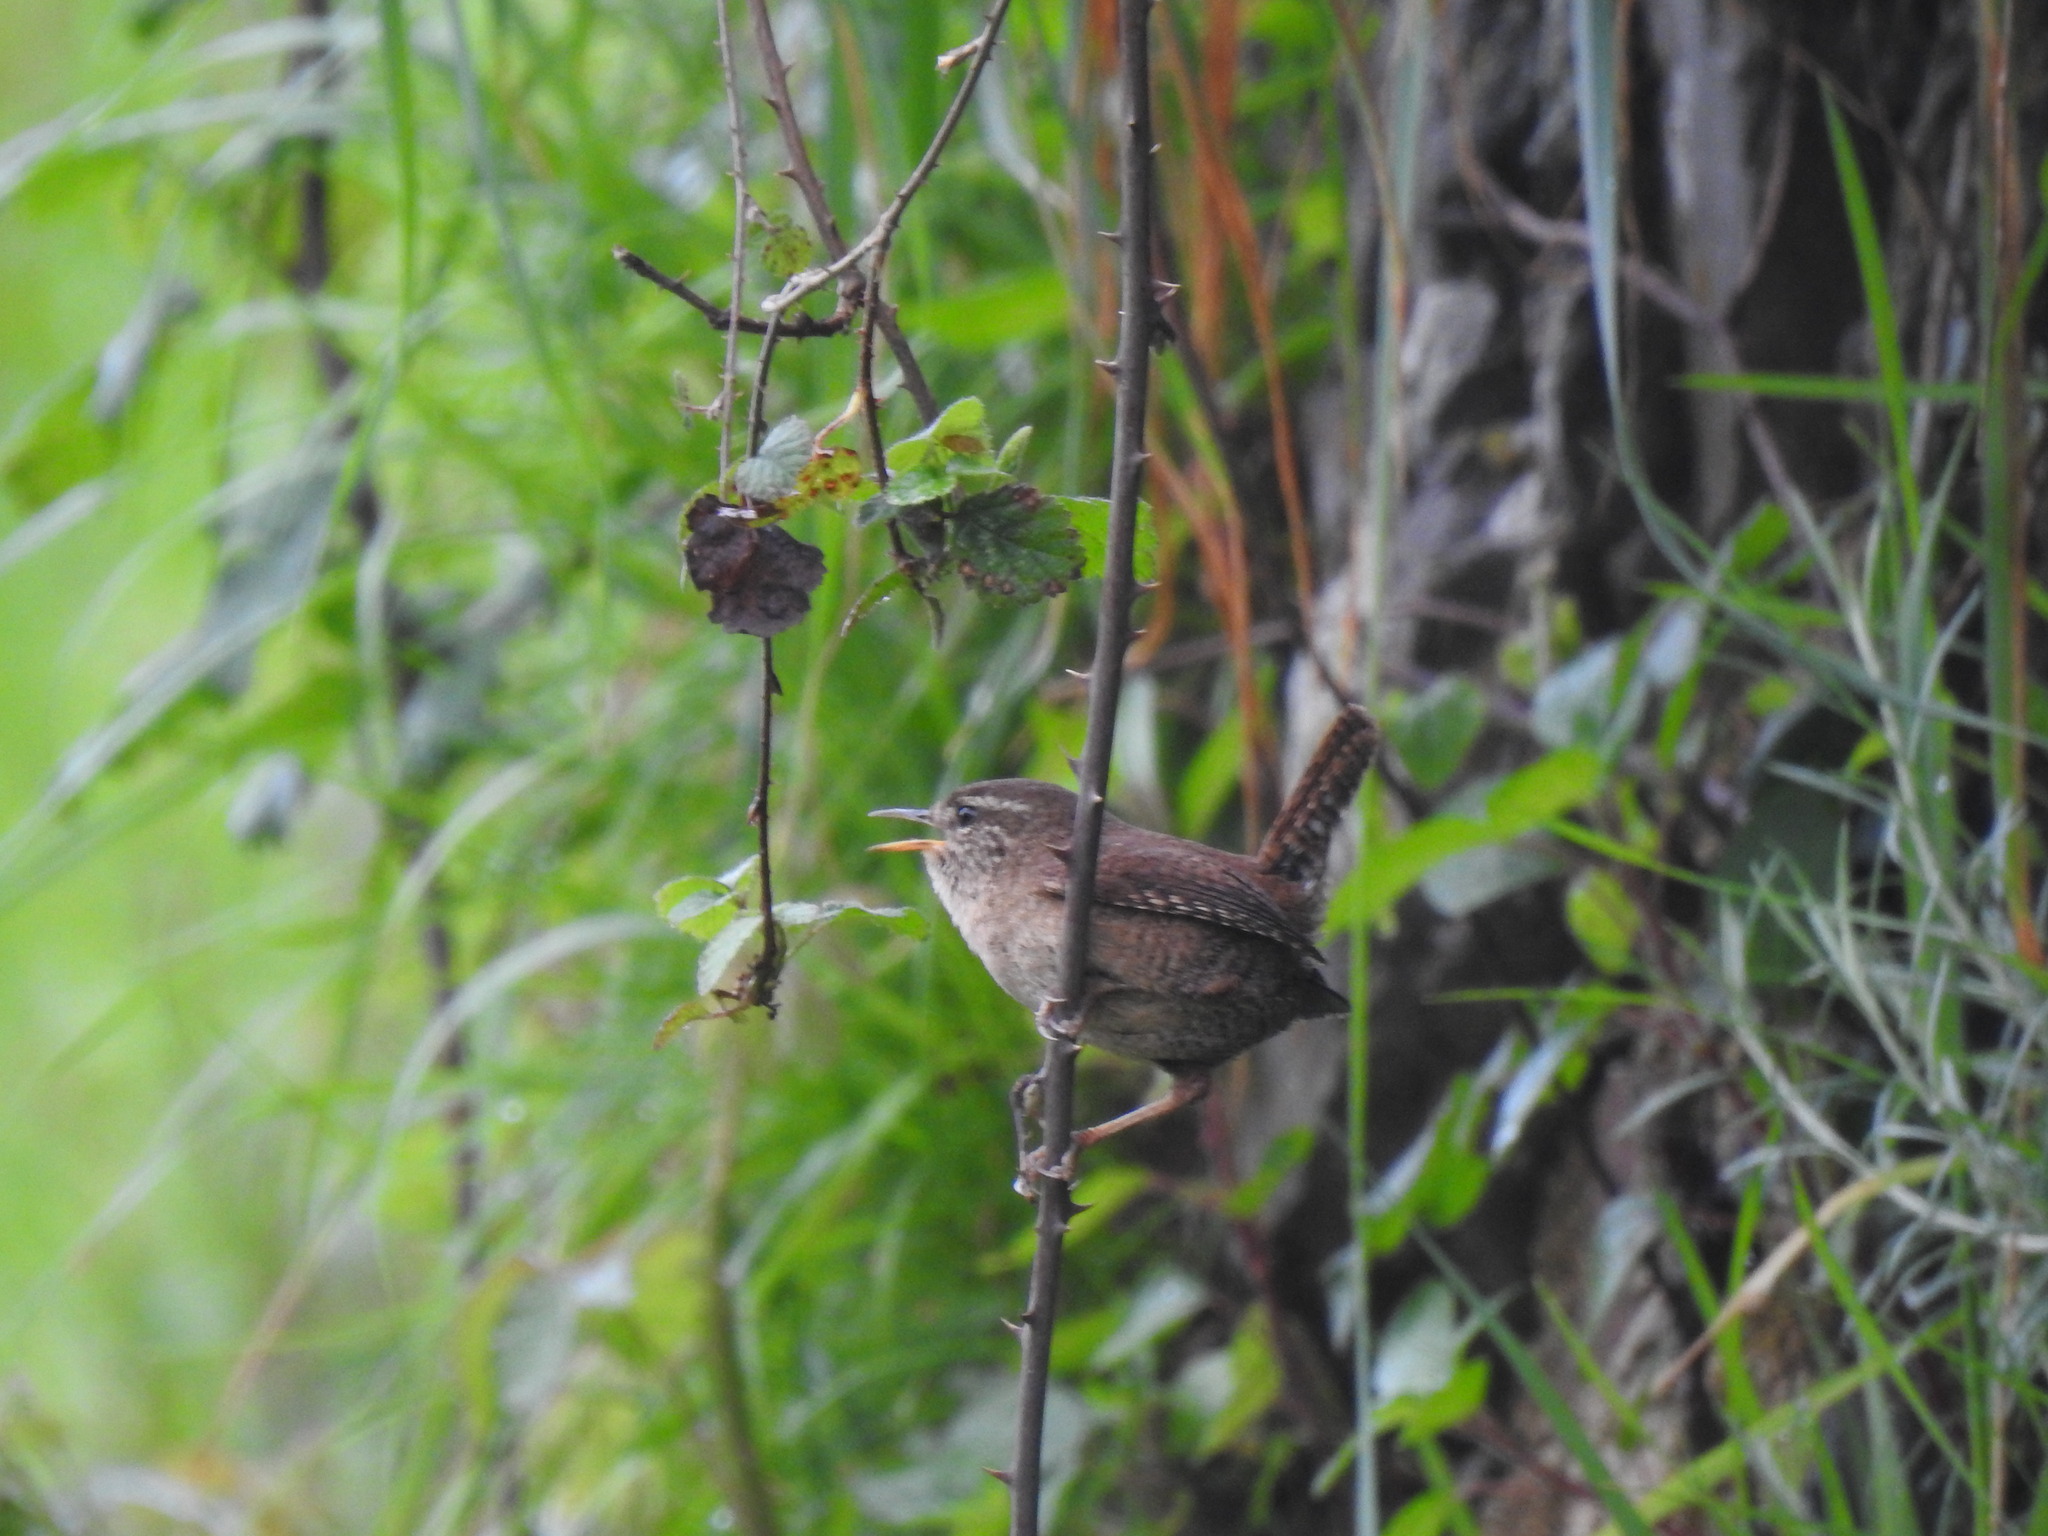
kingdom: Animalia
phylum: Chordata
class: Aves
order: Passeriformes
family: Troglodytidae
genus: Troglodytes
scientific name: Troglodytes troglodytes
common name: Eurasian wren
